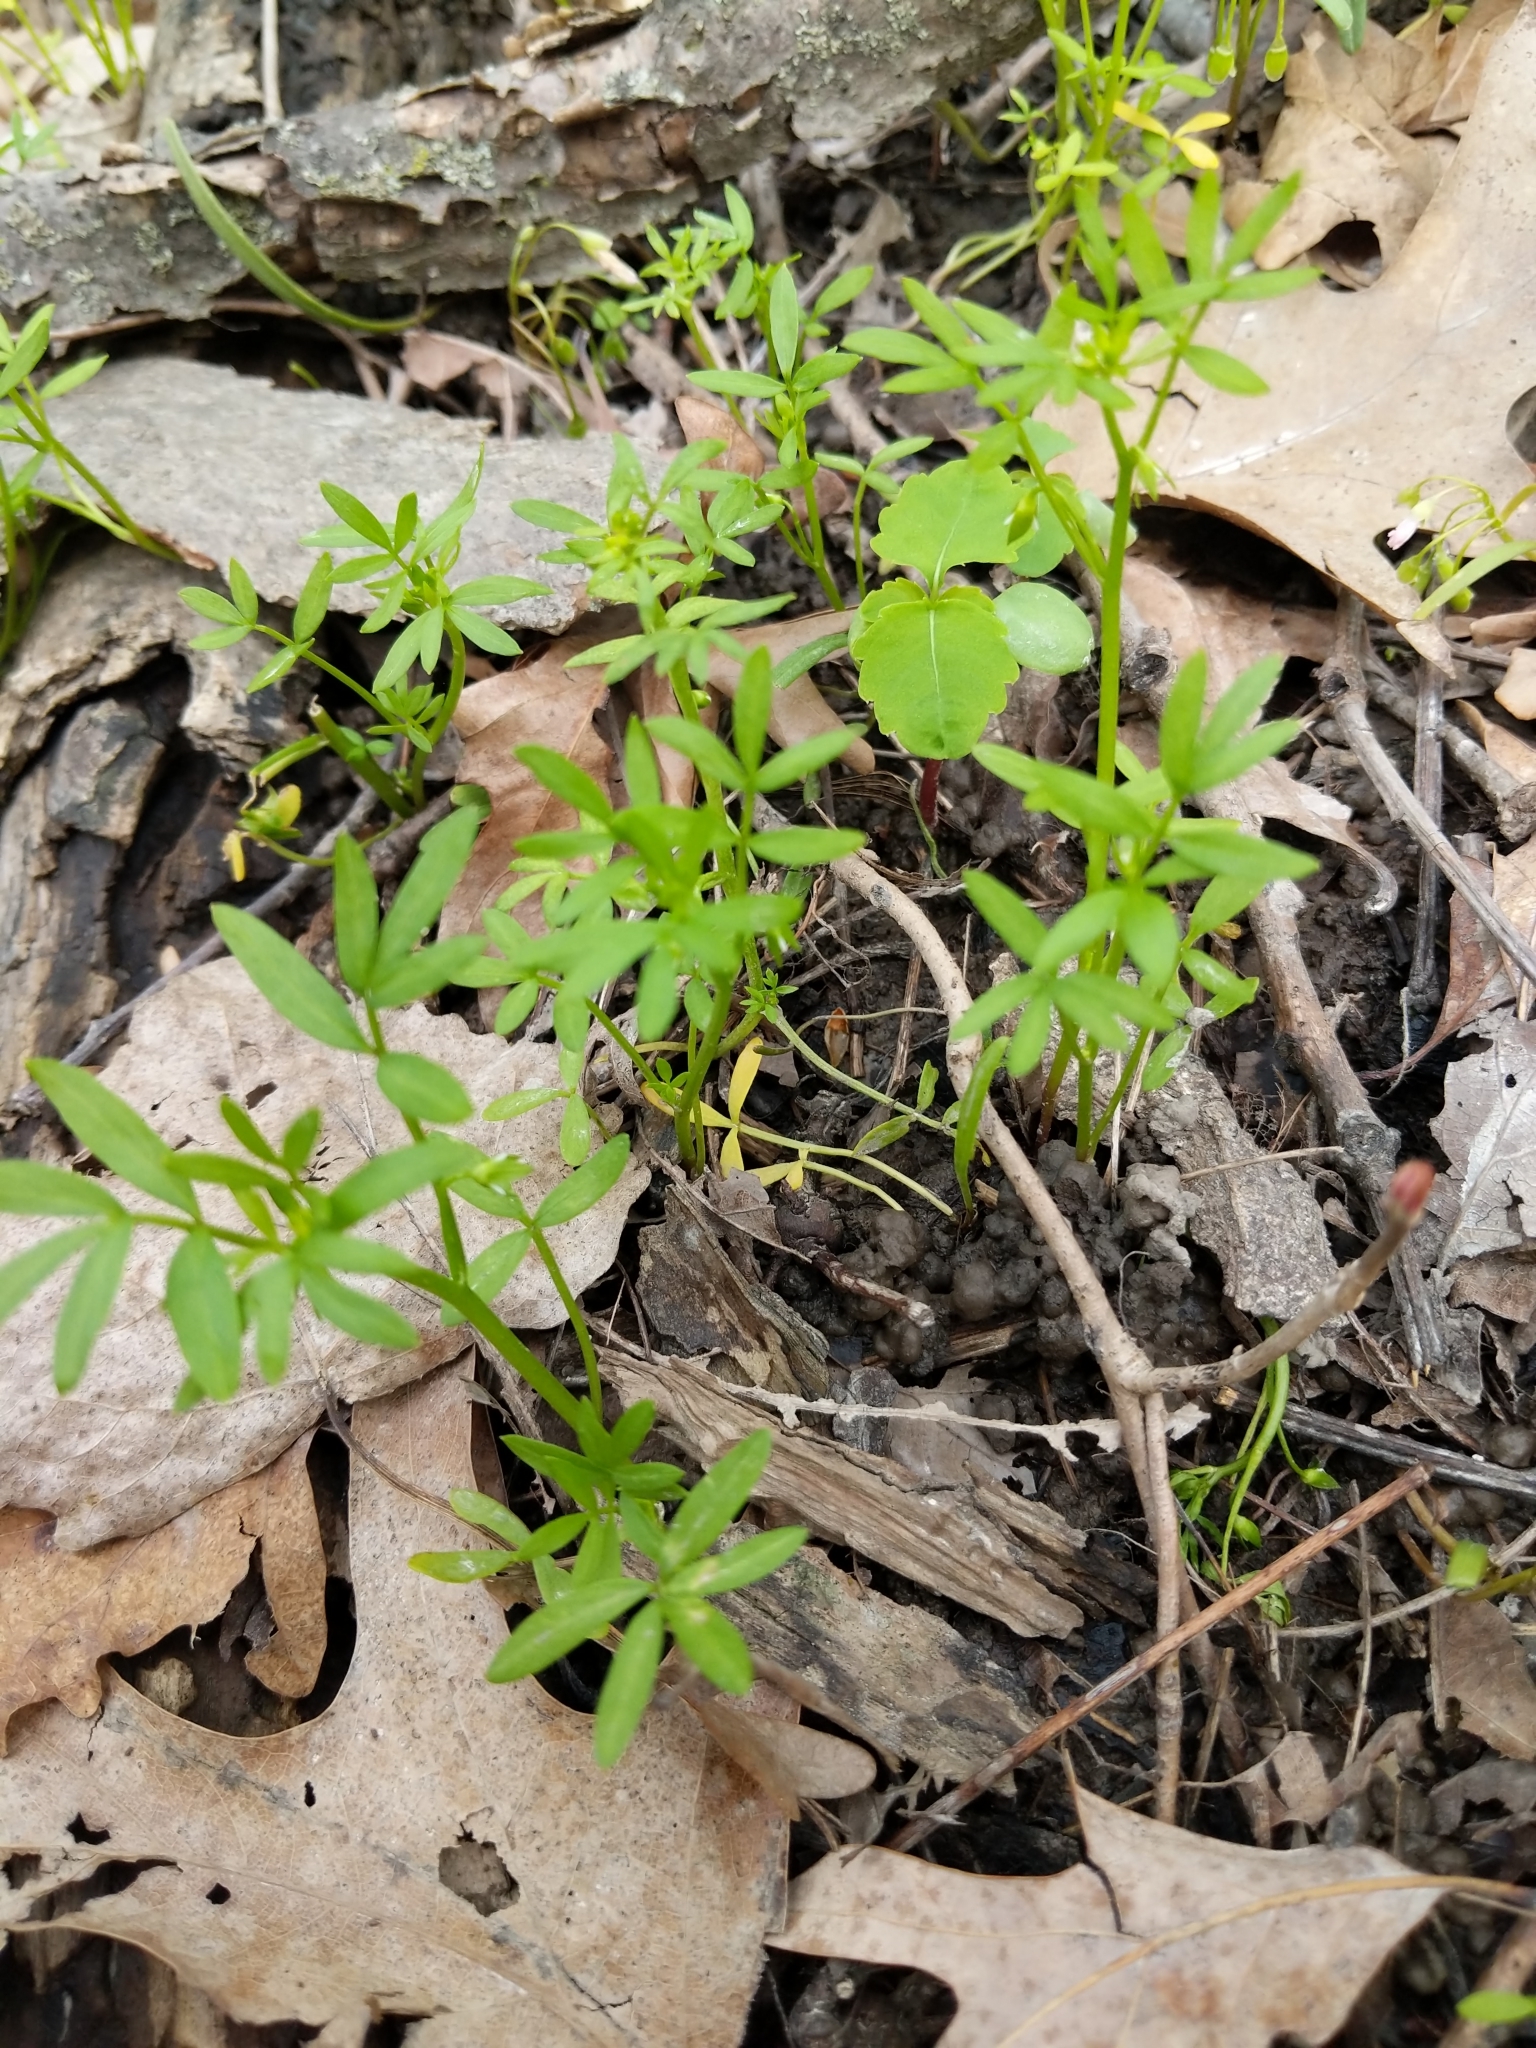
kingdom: Plantae
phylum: Tracheophyta
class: Magnoliopsida
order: Brassicales
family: Limnanthaceae
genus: Floerkea
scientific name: Floerkea proserpinacoides
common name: False mermaid
